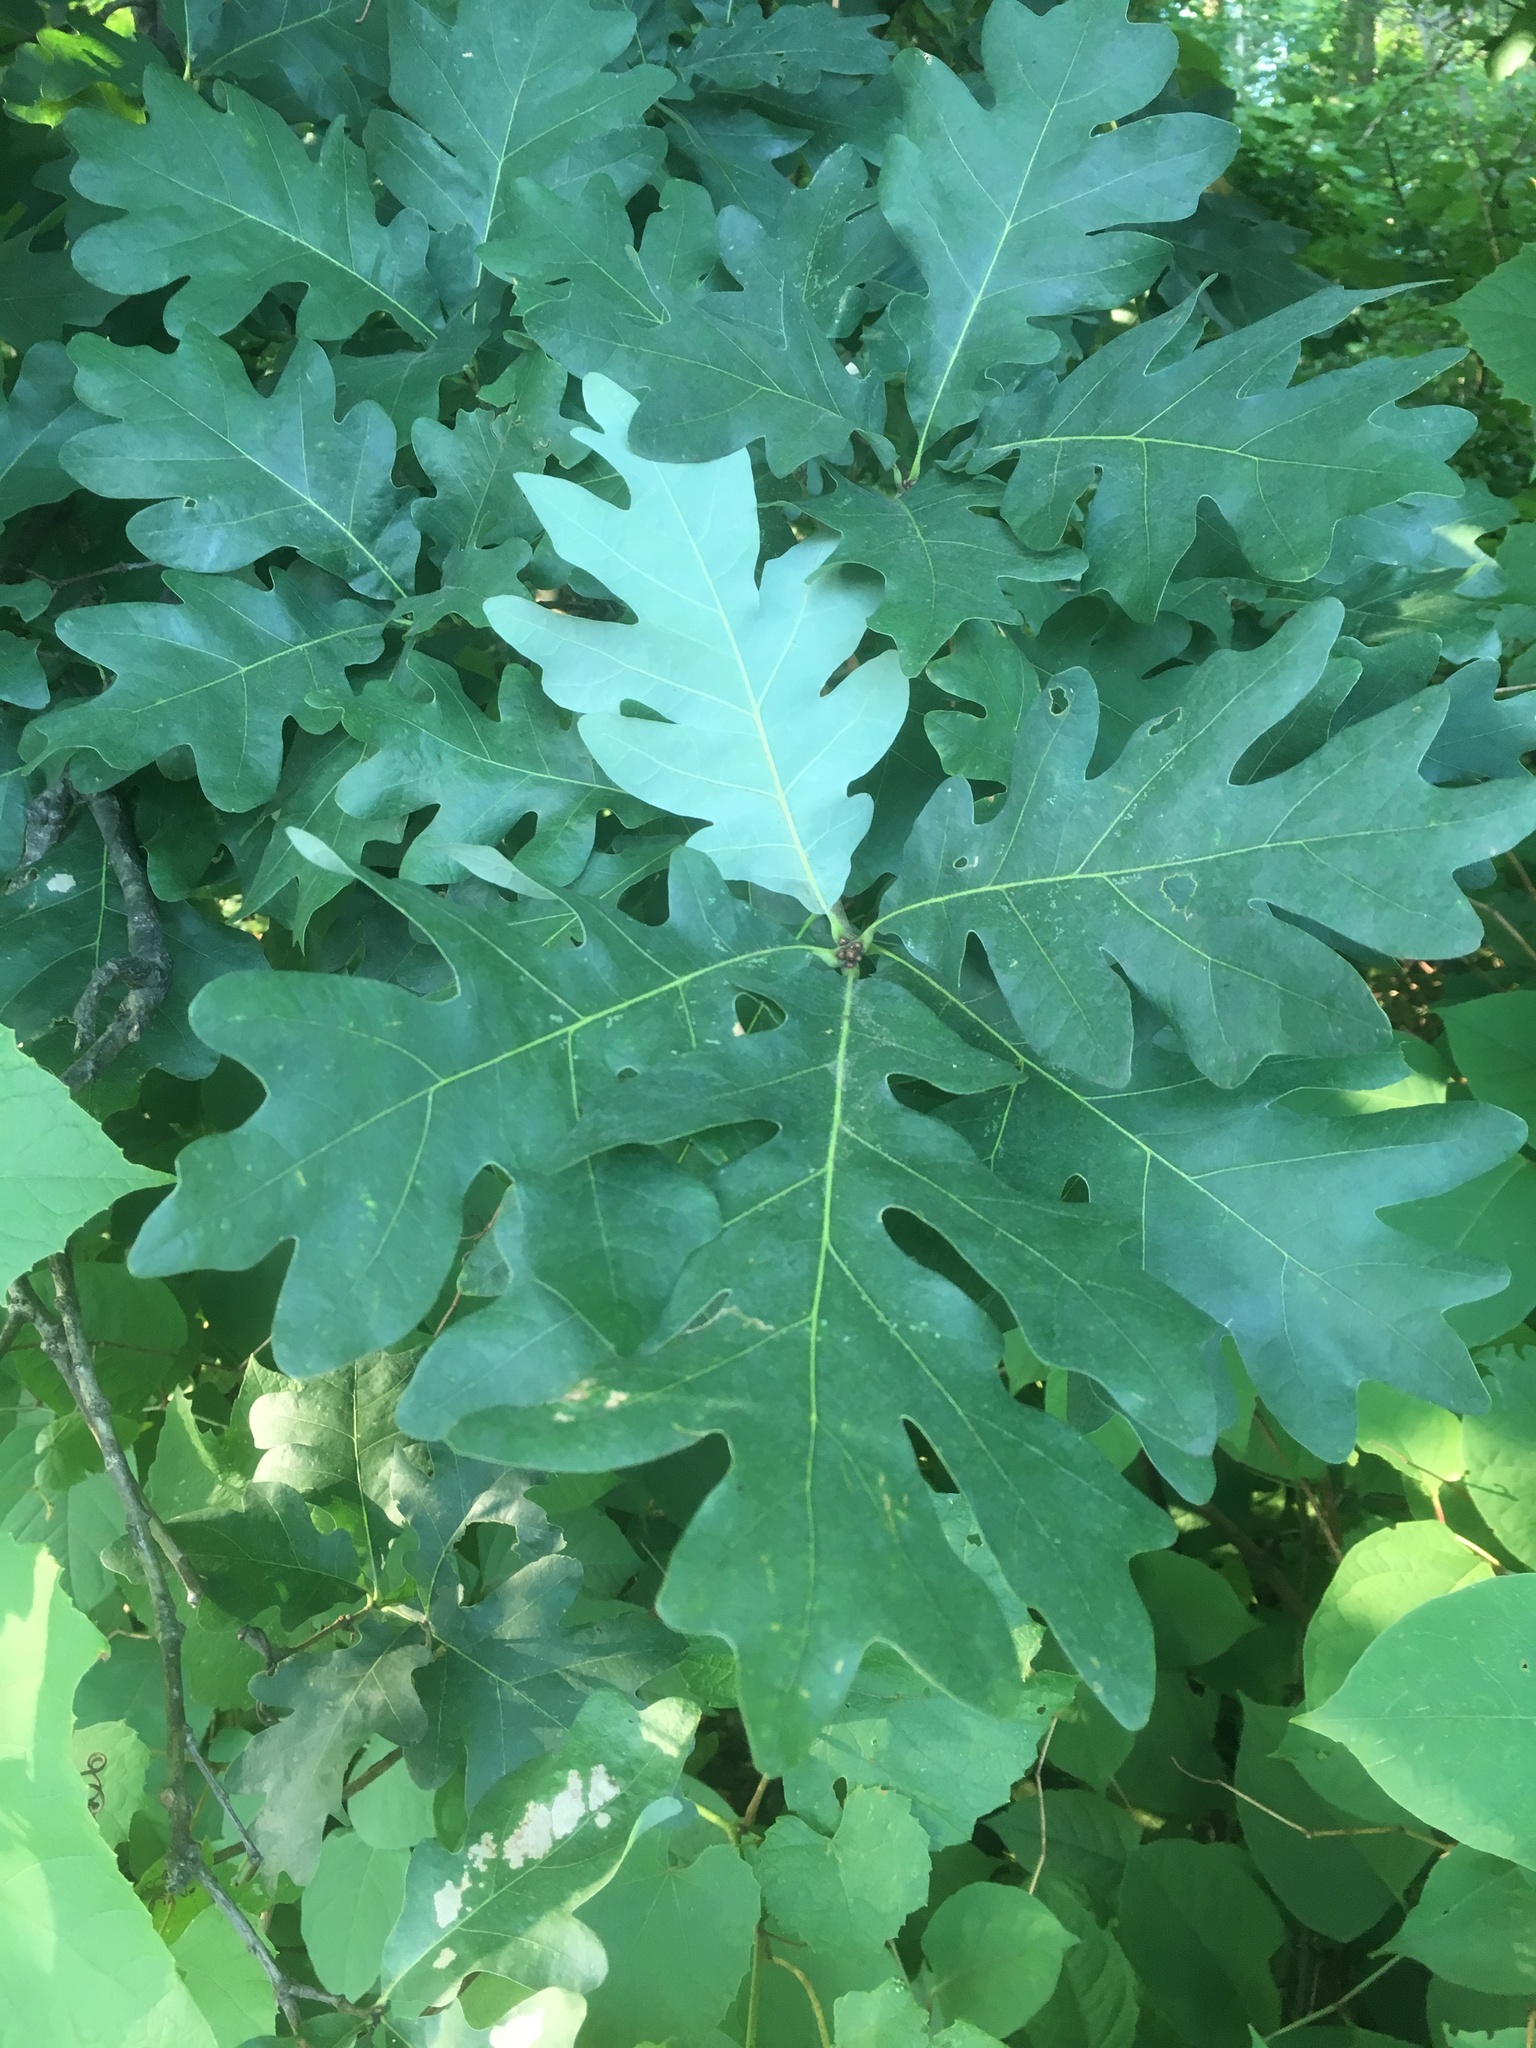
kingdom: Plantae
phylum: Tracheophyta
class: Magnoliopsida
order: Fagales
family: Fagaceae
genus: Quercus
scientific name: Quercus alba
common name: White oak
